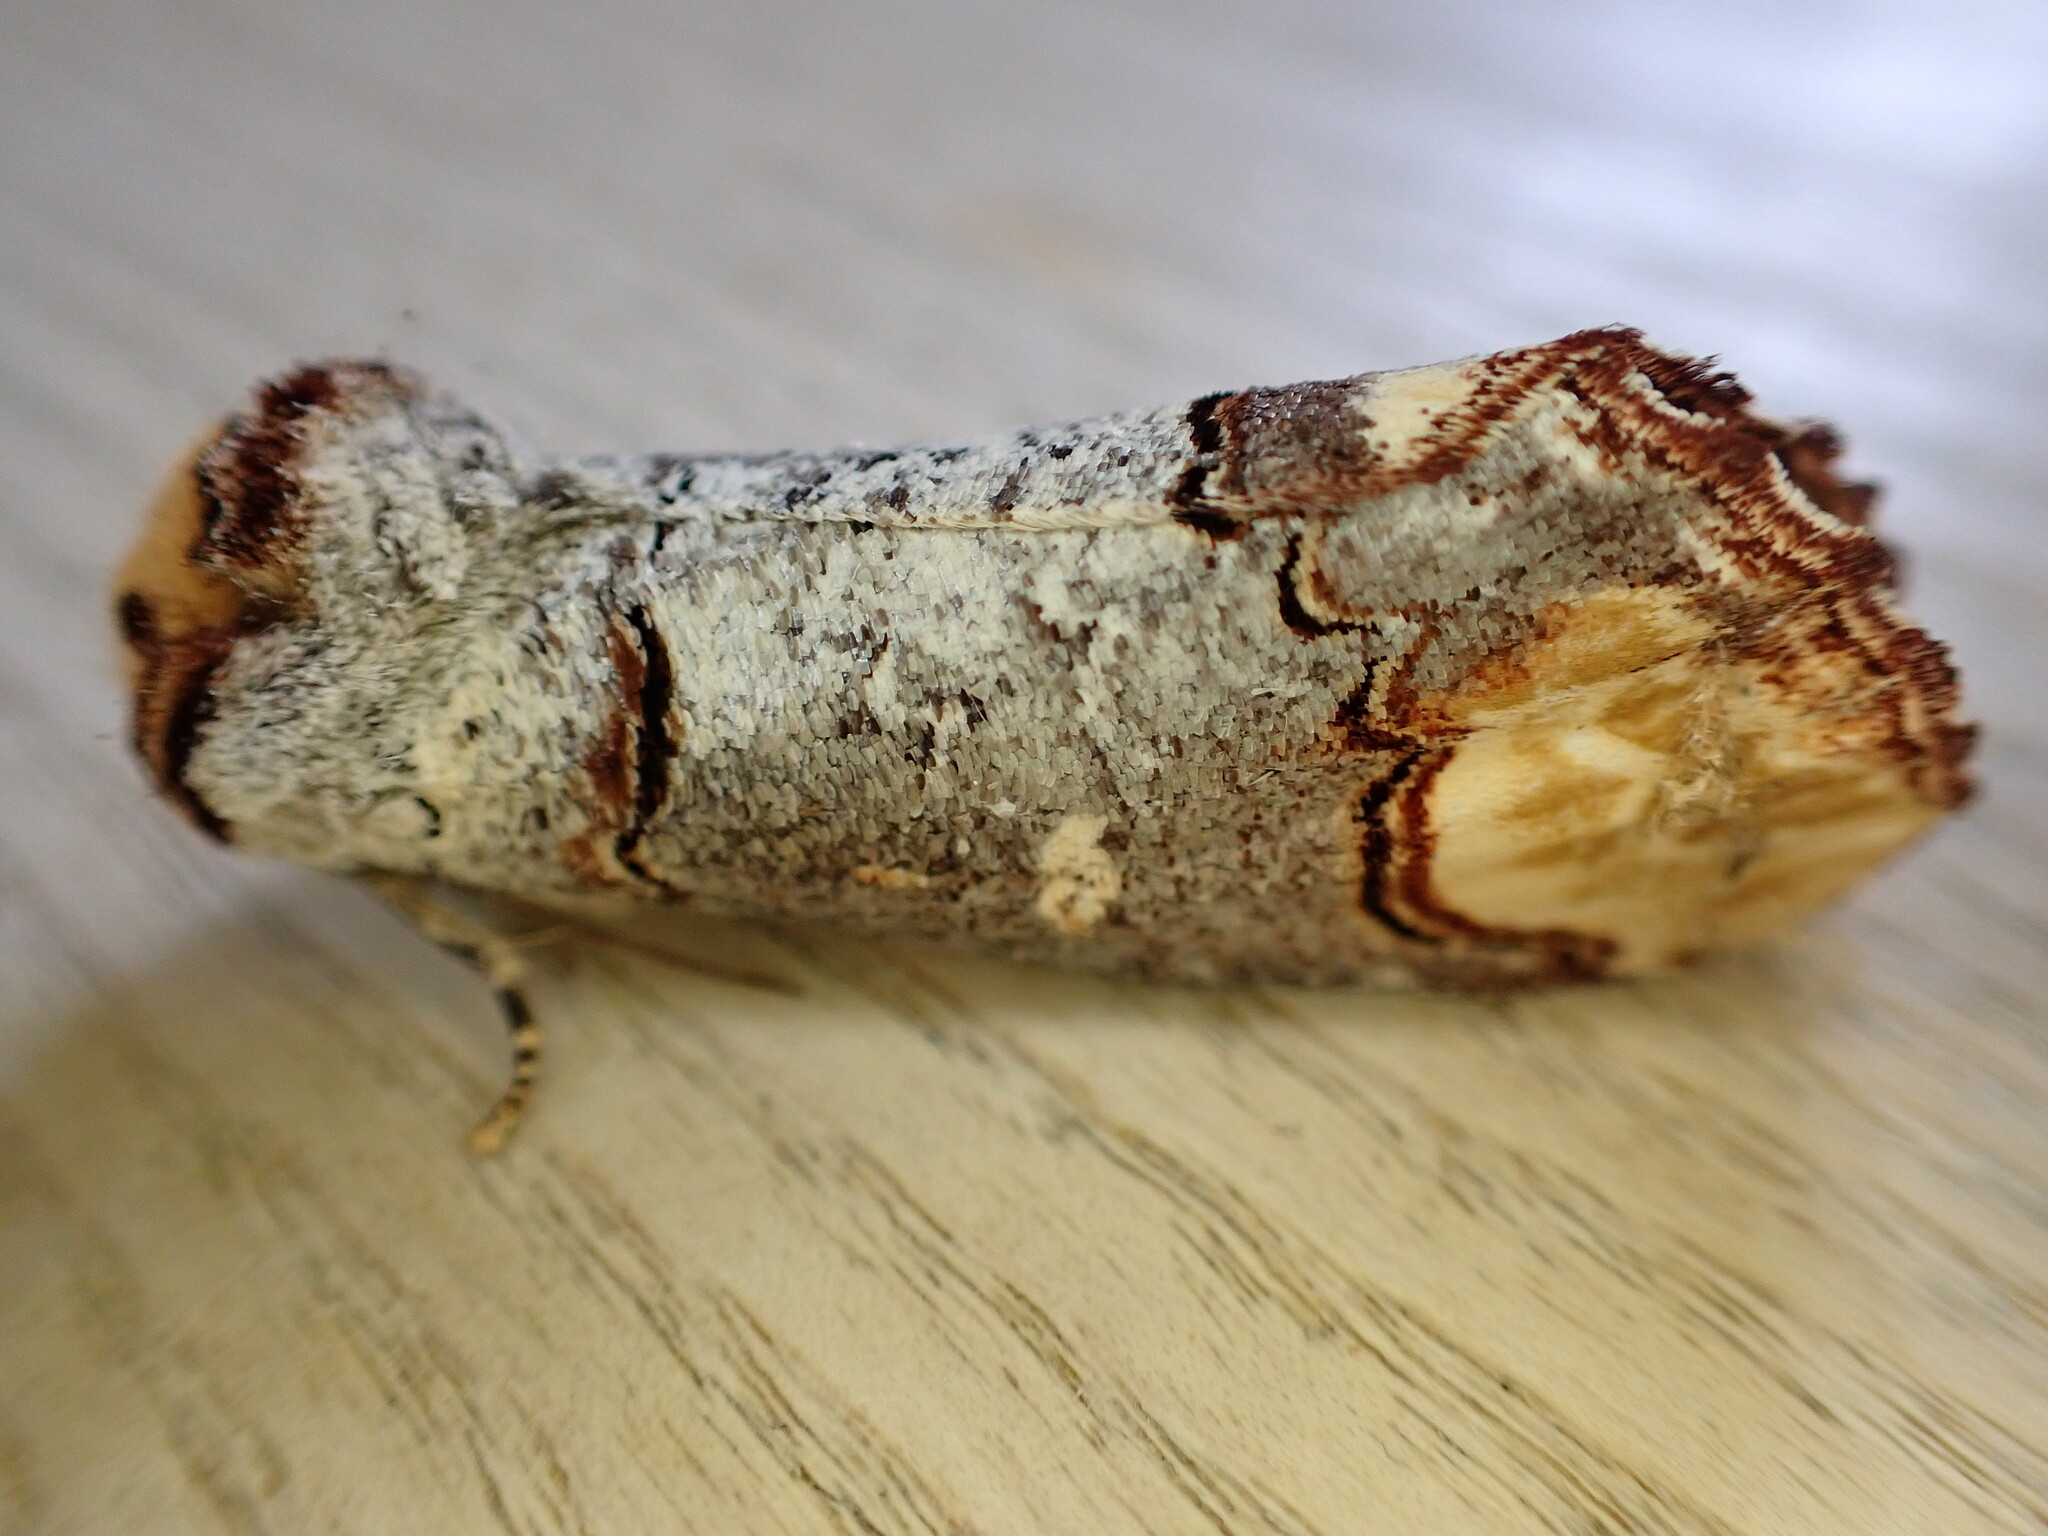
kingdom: Animalia
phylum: Arthropoda
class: Insecta
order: Lepidoptera
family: Notodontidae
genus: Phalera
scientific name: Phalera bucephala
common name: Buff-tip
